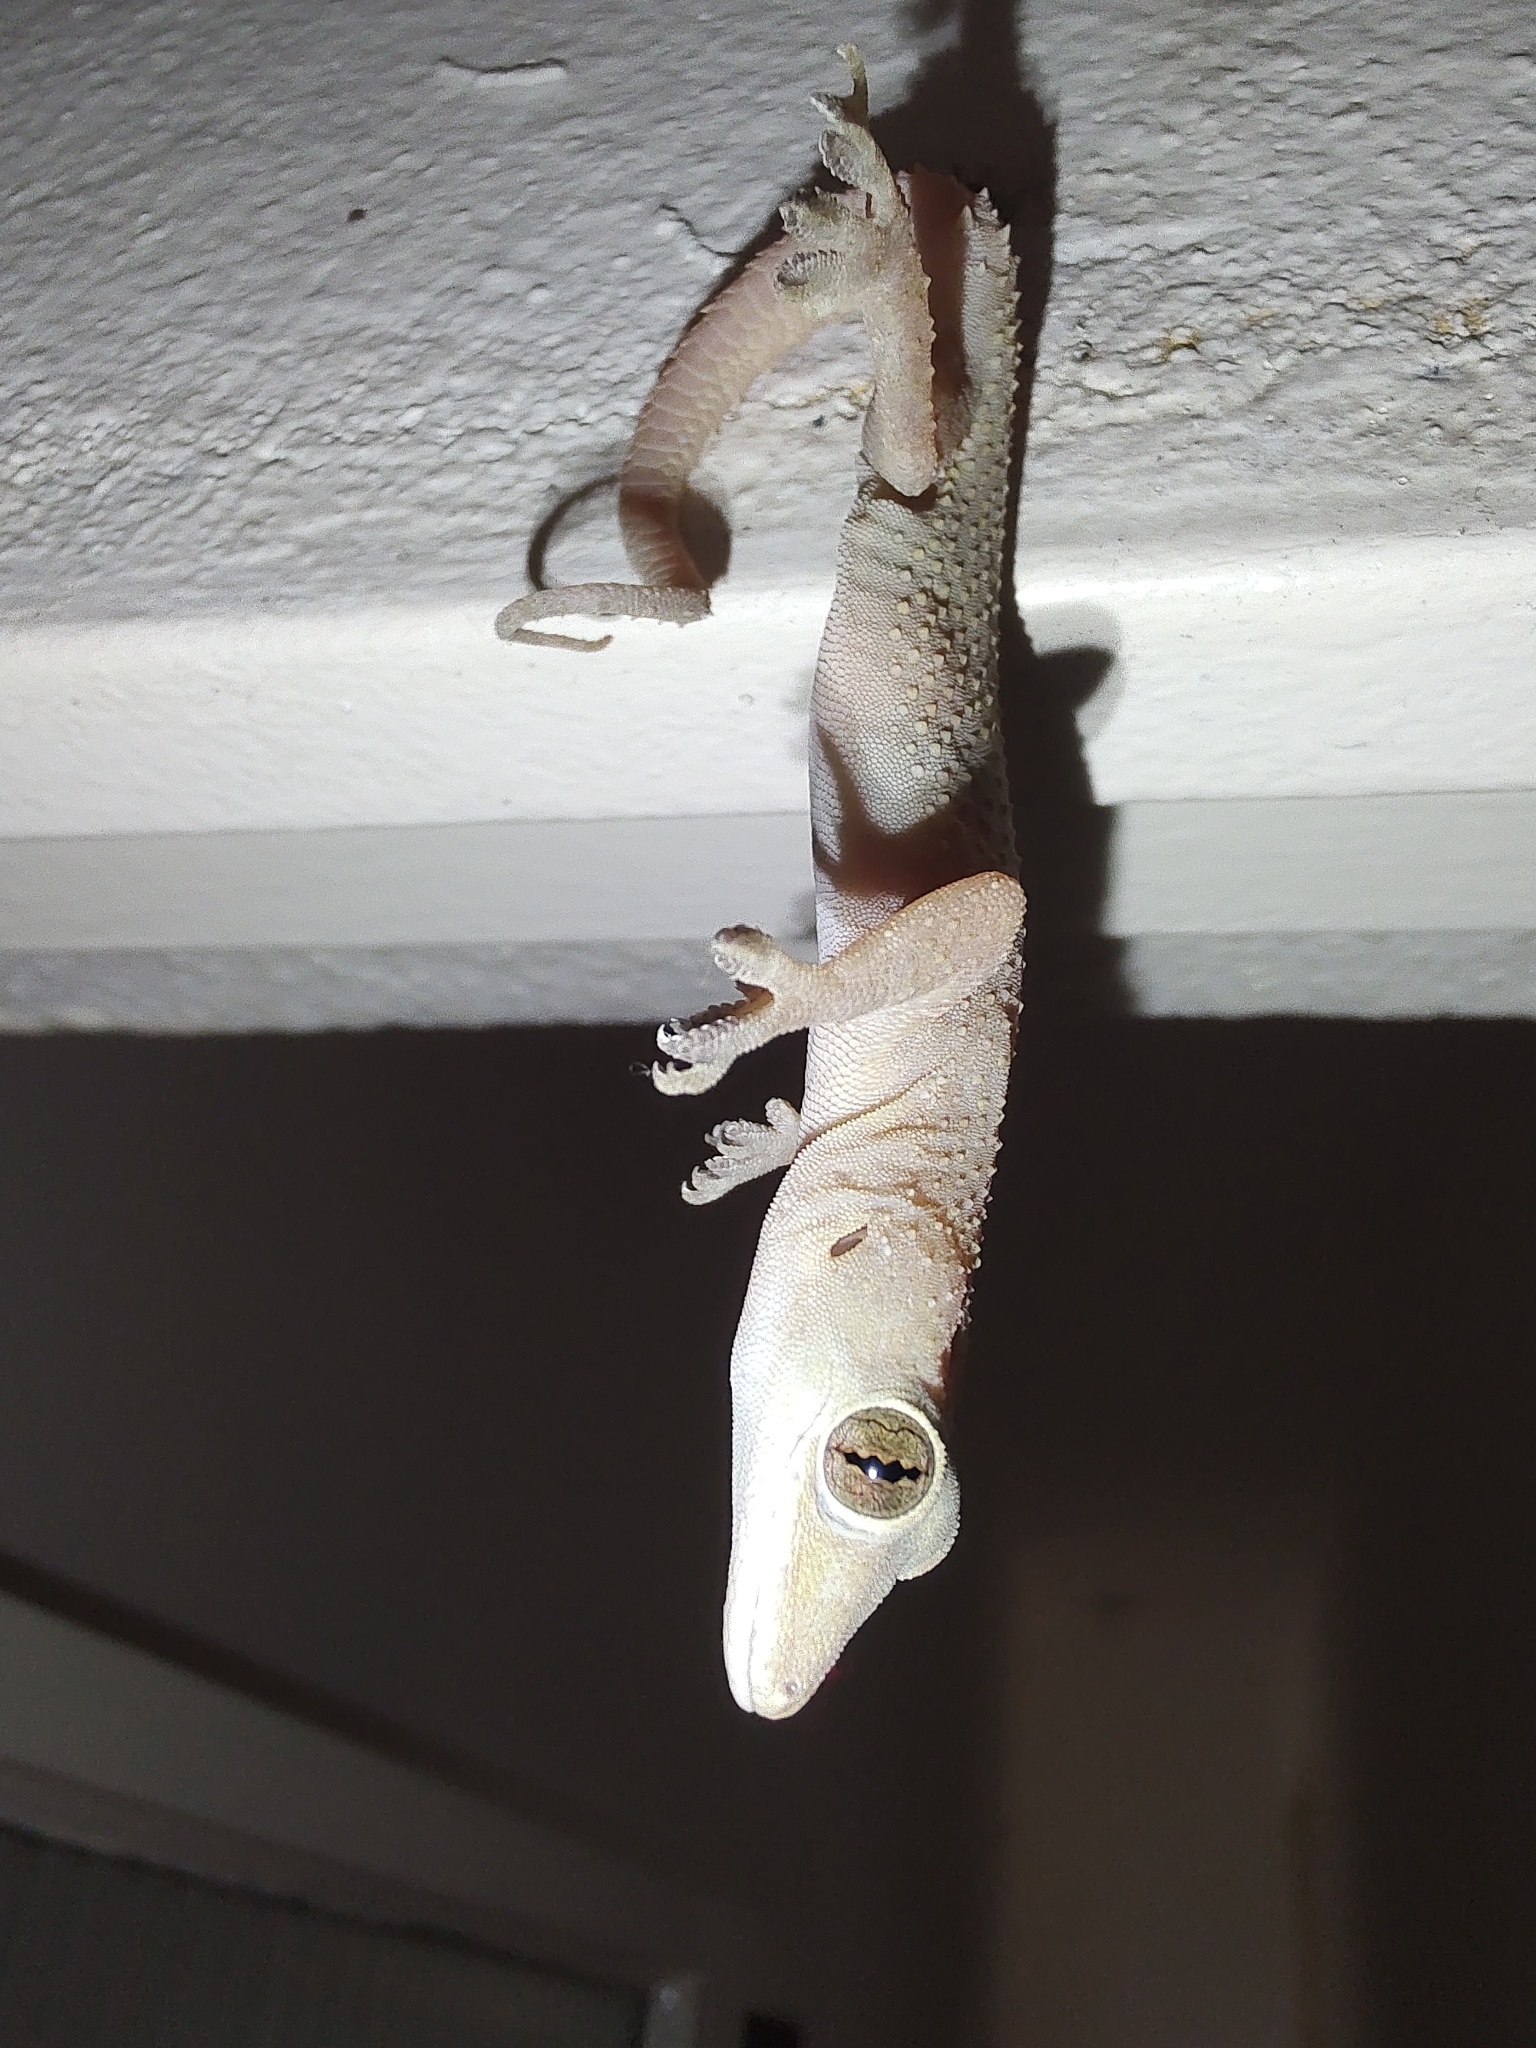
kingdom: Animalia
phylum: Chordata
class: Squamata
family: Gekkonidae
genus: Hemidactylus
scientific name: Hemidactylus mabouia
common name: House gecko
